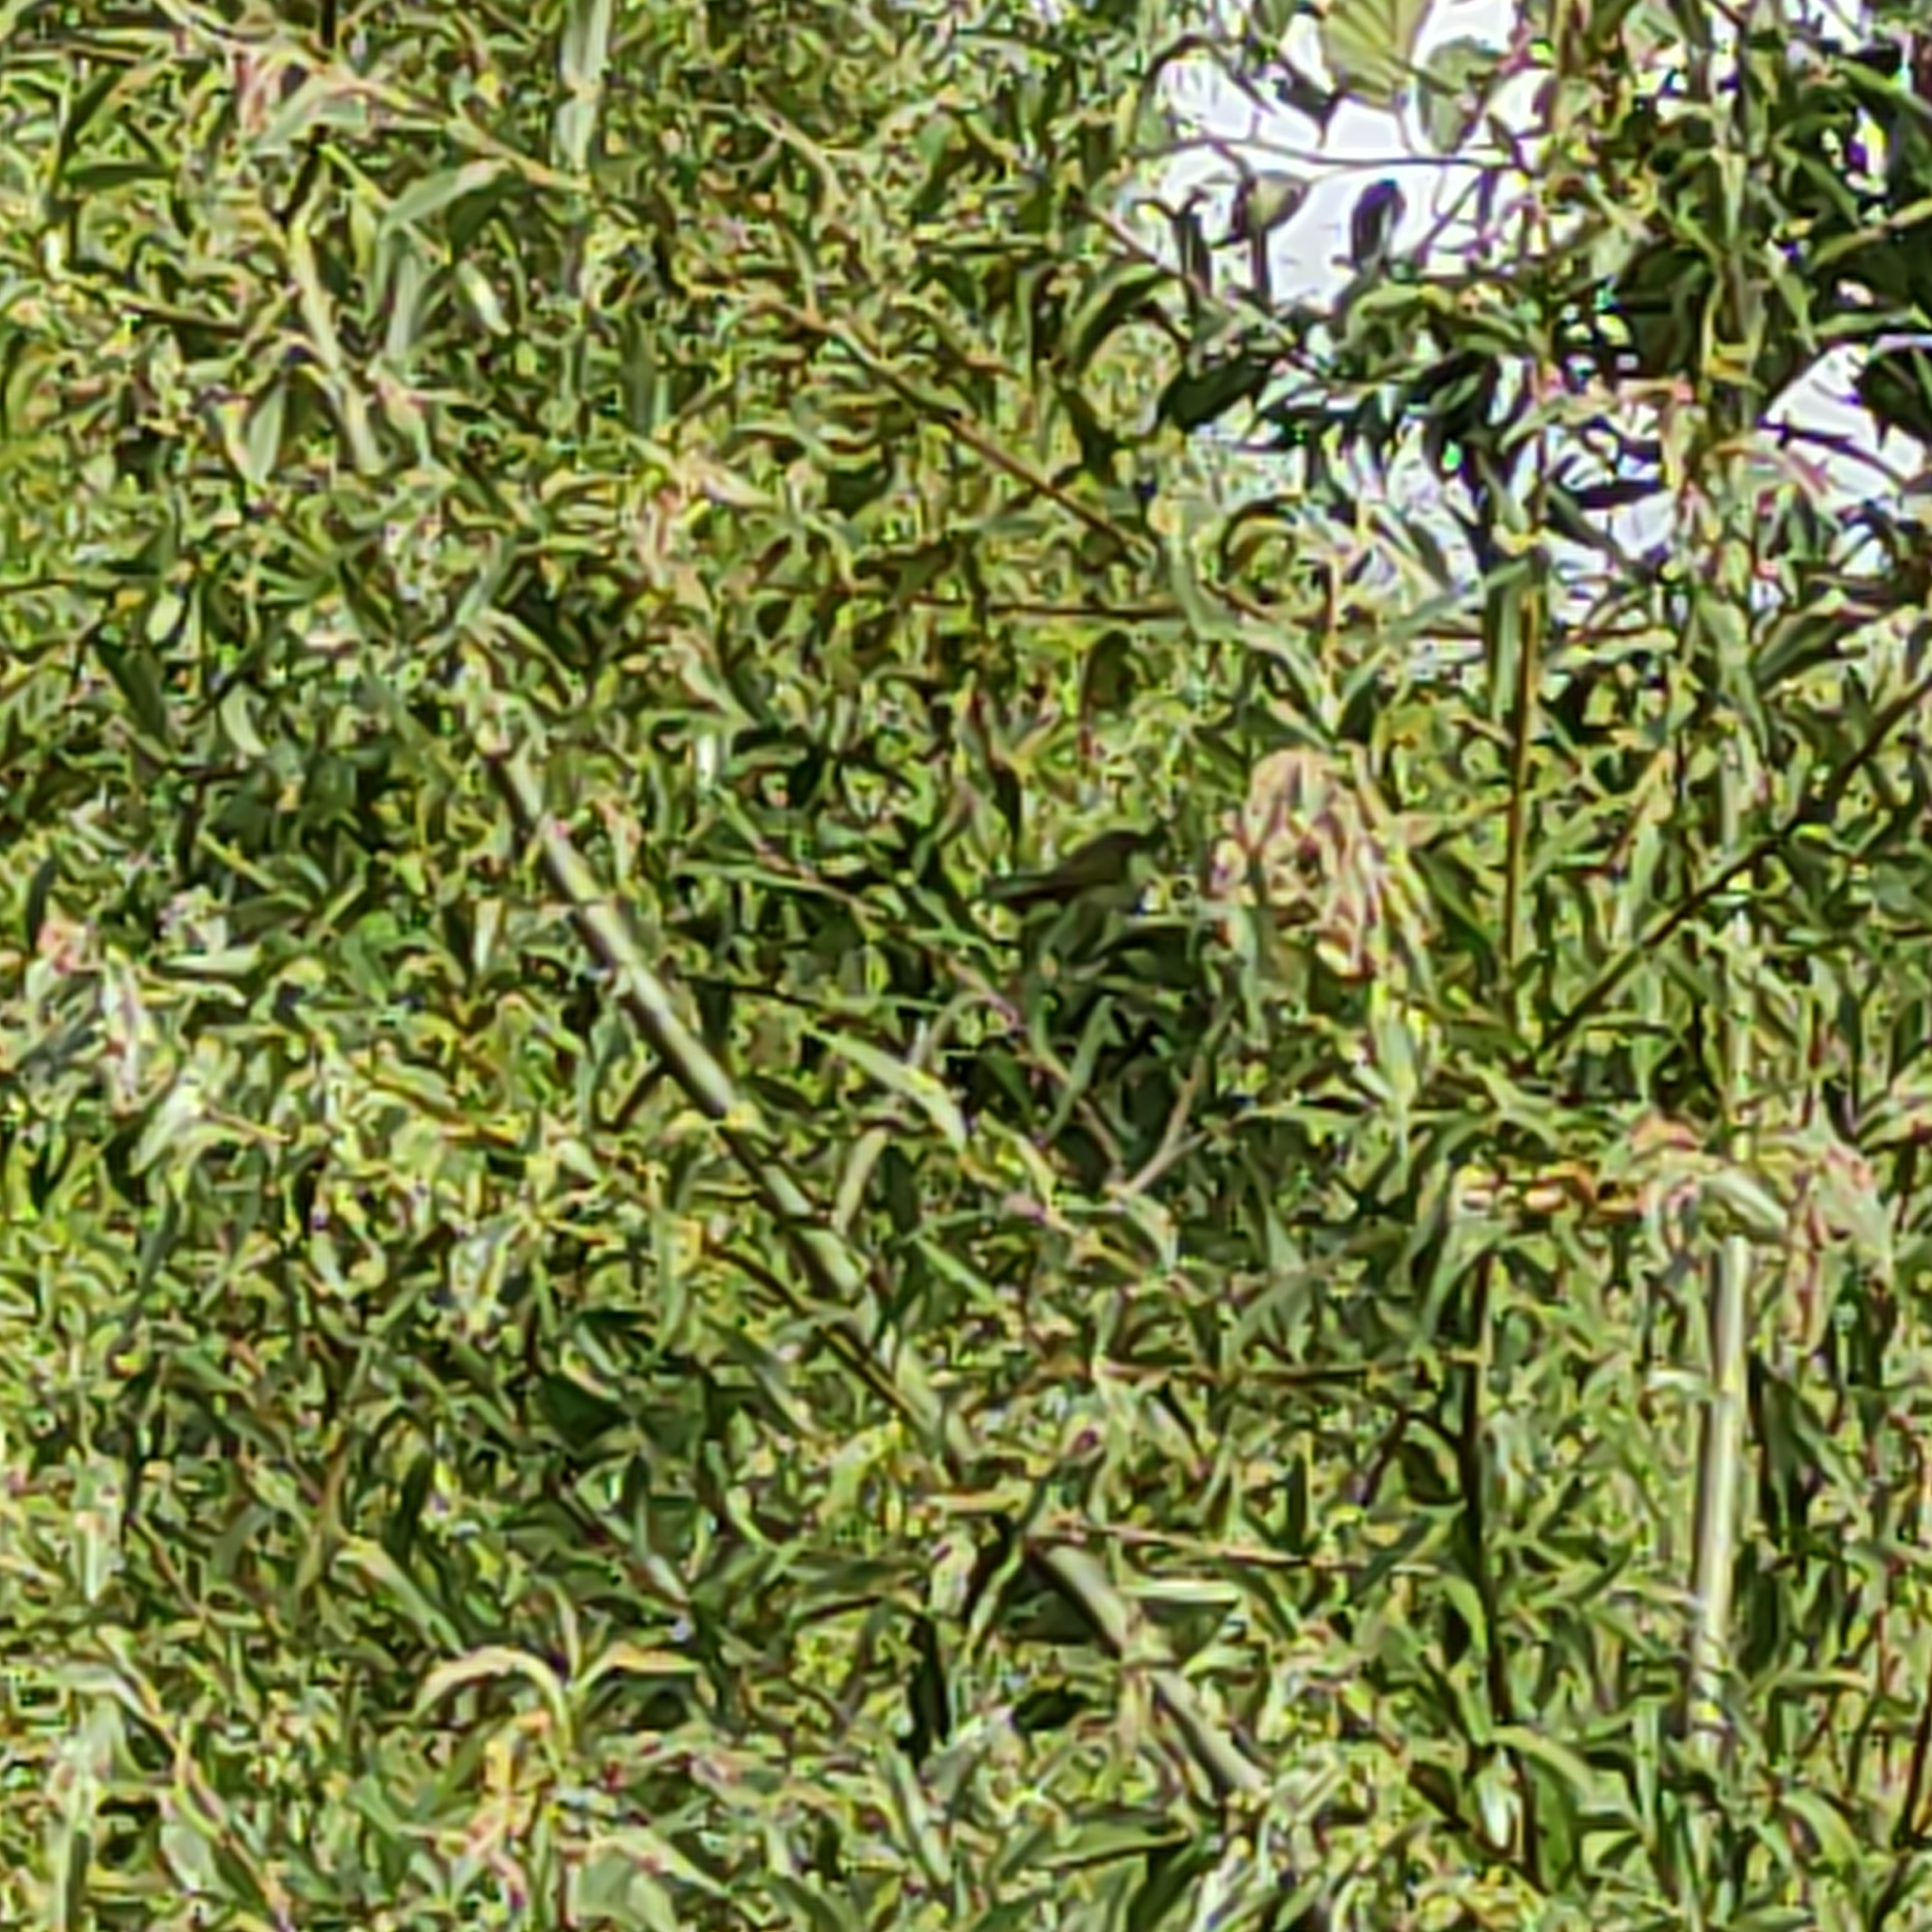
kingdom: Animalia
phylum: Chordata
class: Aves
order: Passeriformes
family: Zosteropidae
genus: Zosterops
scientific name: Zosterops lateralis
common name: Silvereye
